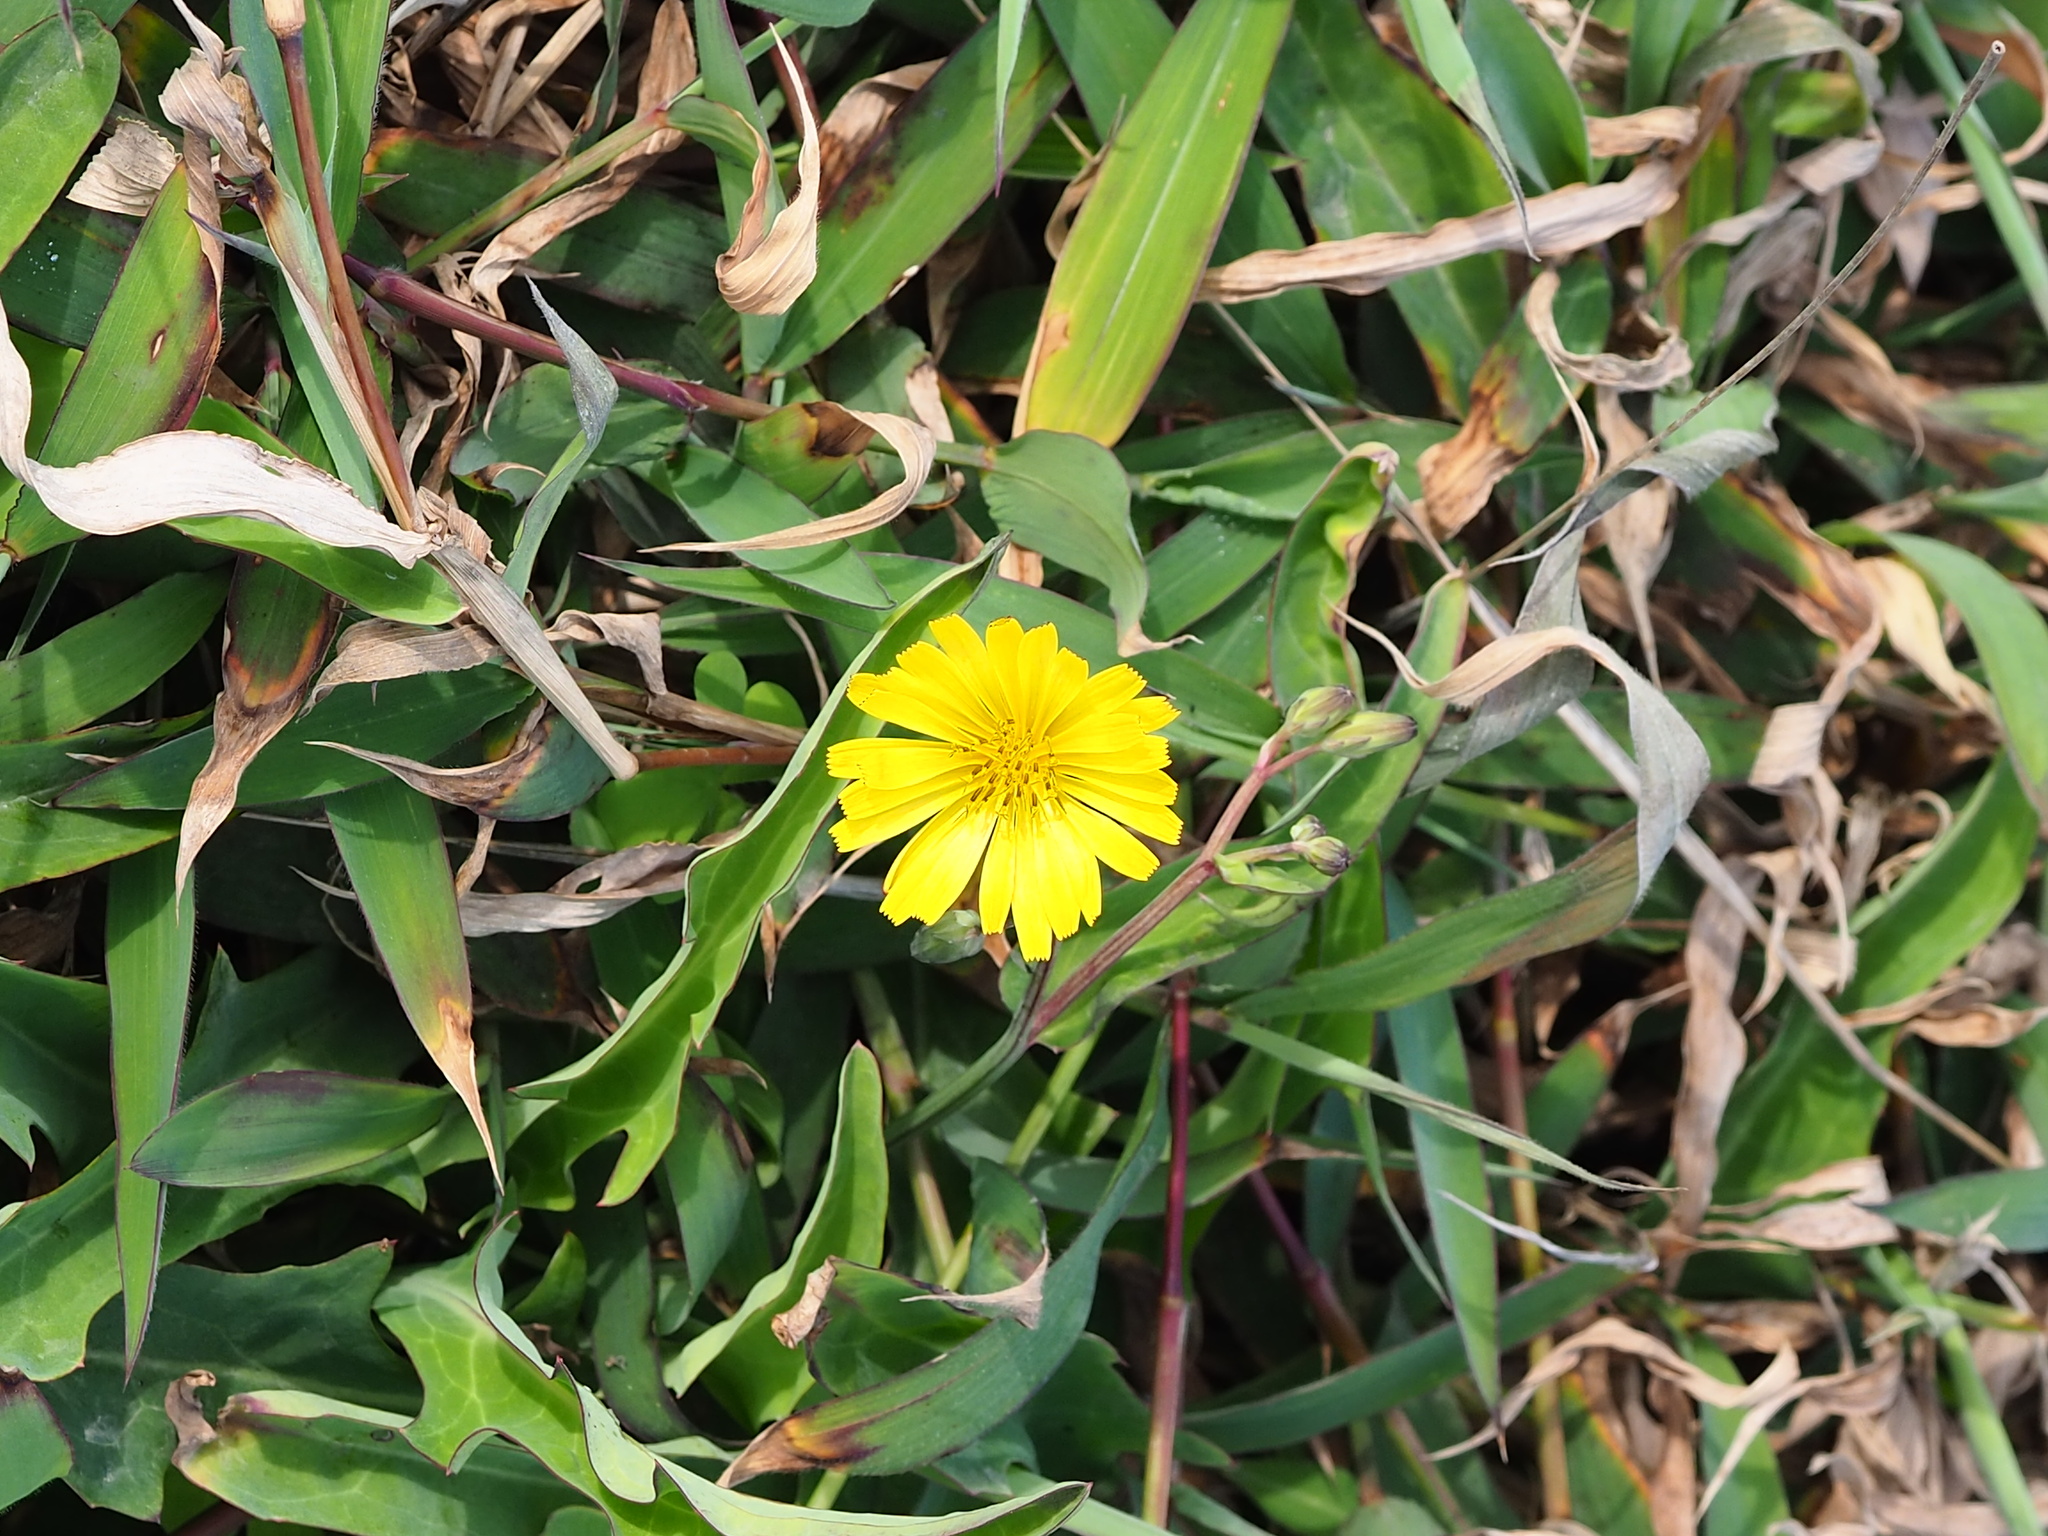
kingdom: Plantae
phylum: Tracheophyta
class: Magnoliopsida
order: Asterales
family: Asteraceae
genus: Ixeris
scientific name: Ixeris japonica
